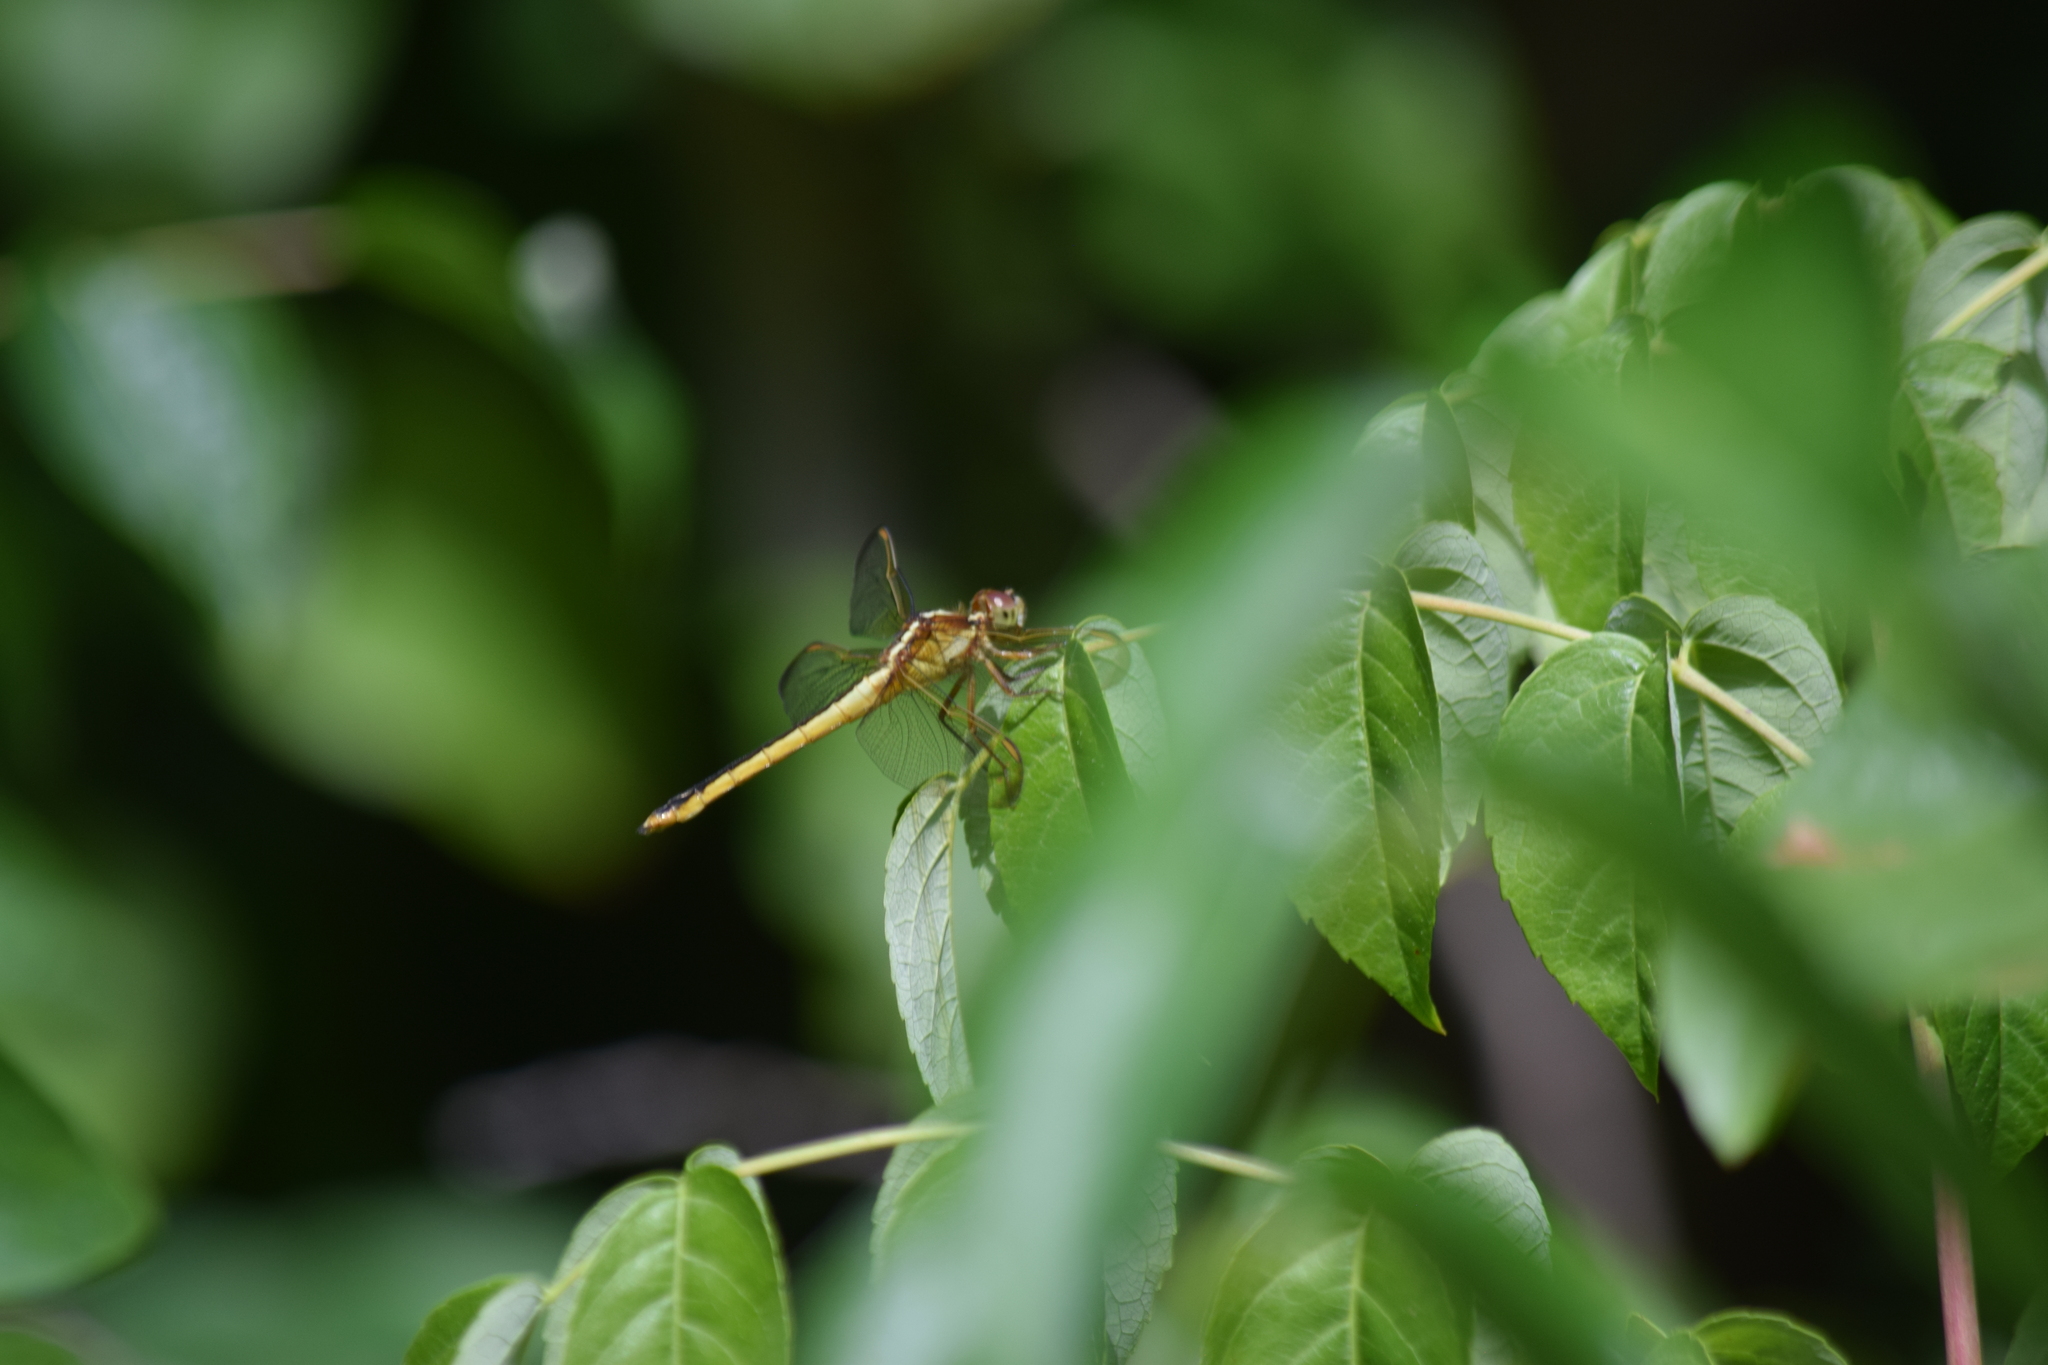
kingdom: Animalia
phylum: Arthropoda
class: Insecta
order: Odonata
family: Libellulidae
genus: Libellula
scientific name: Libellula needhami
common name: Needham's skimmer
